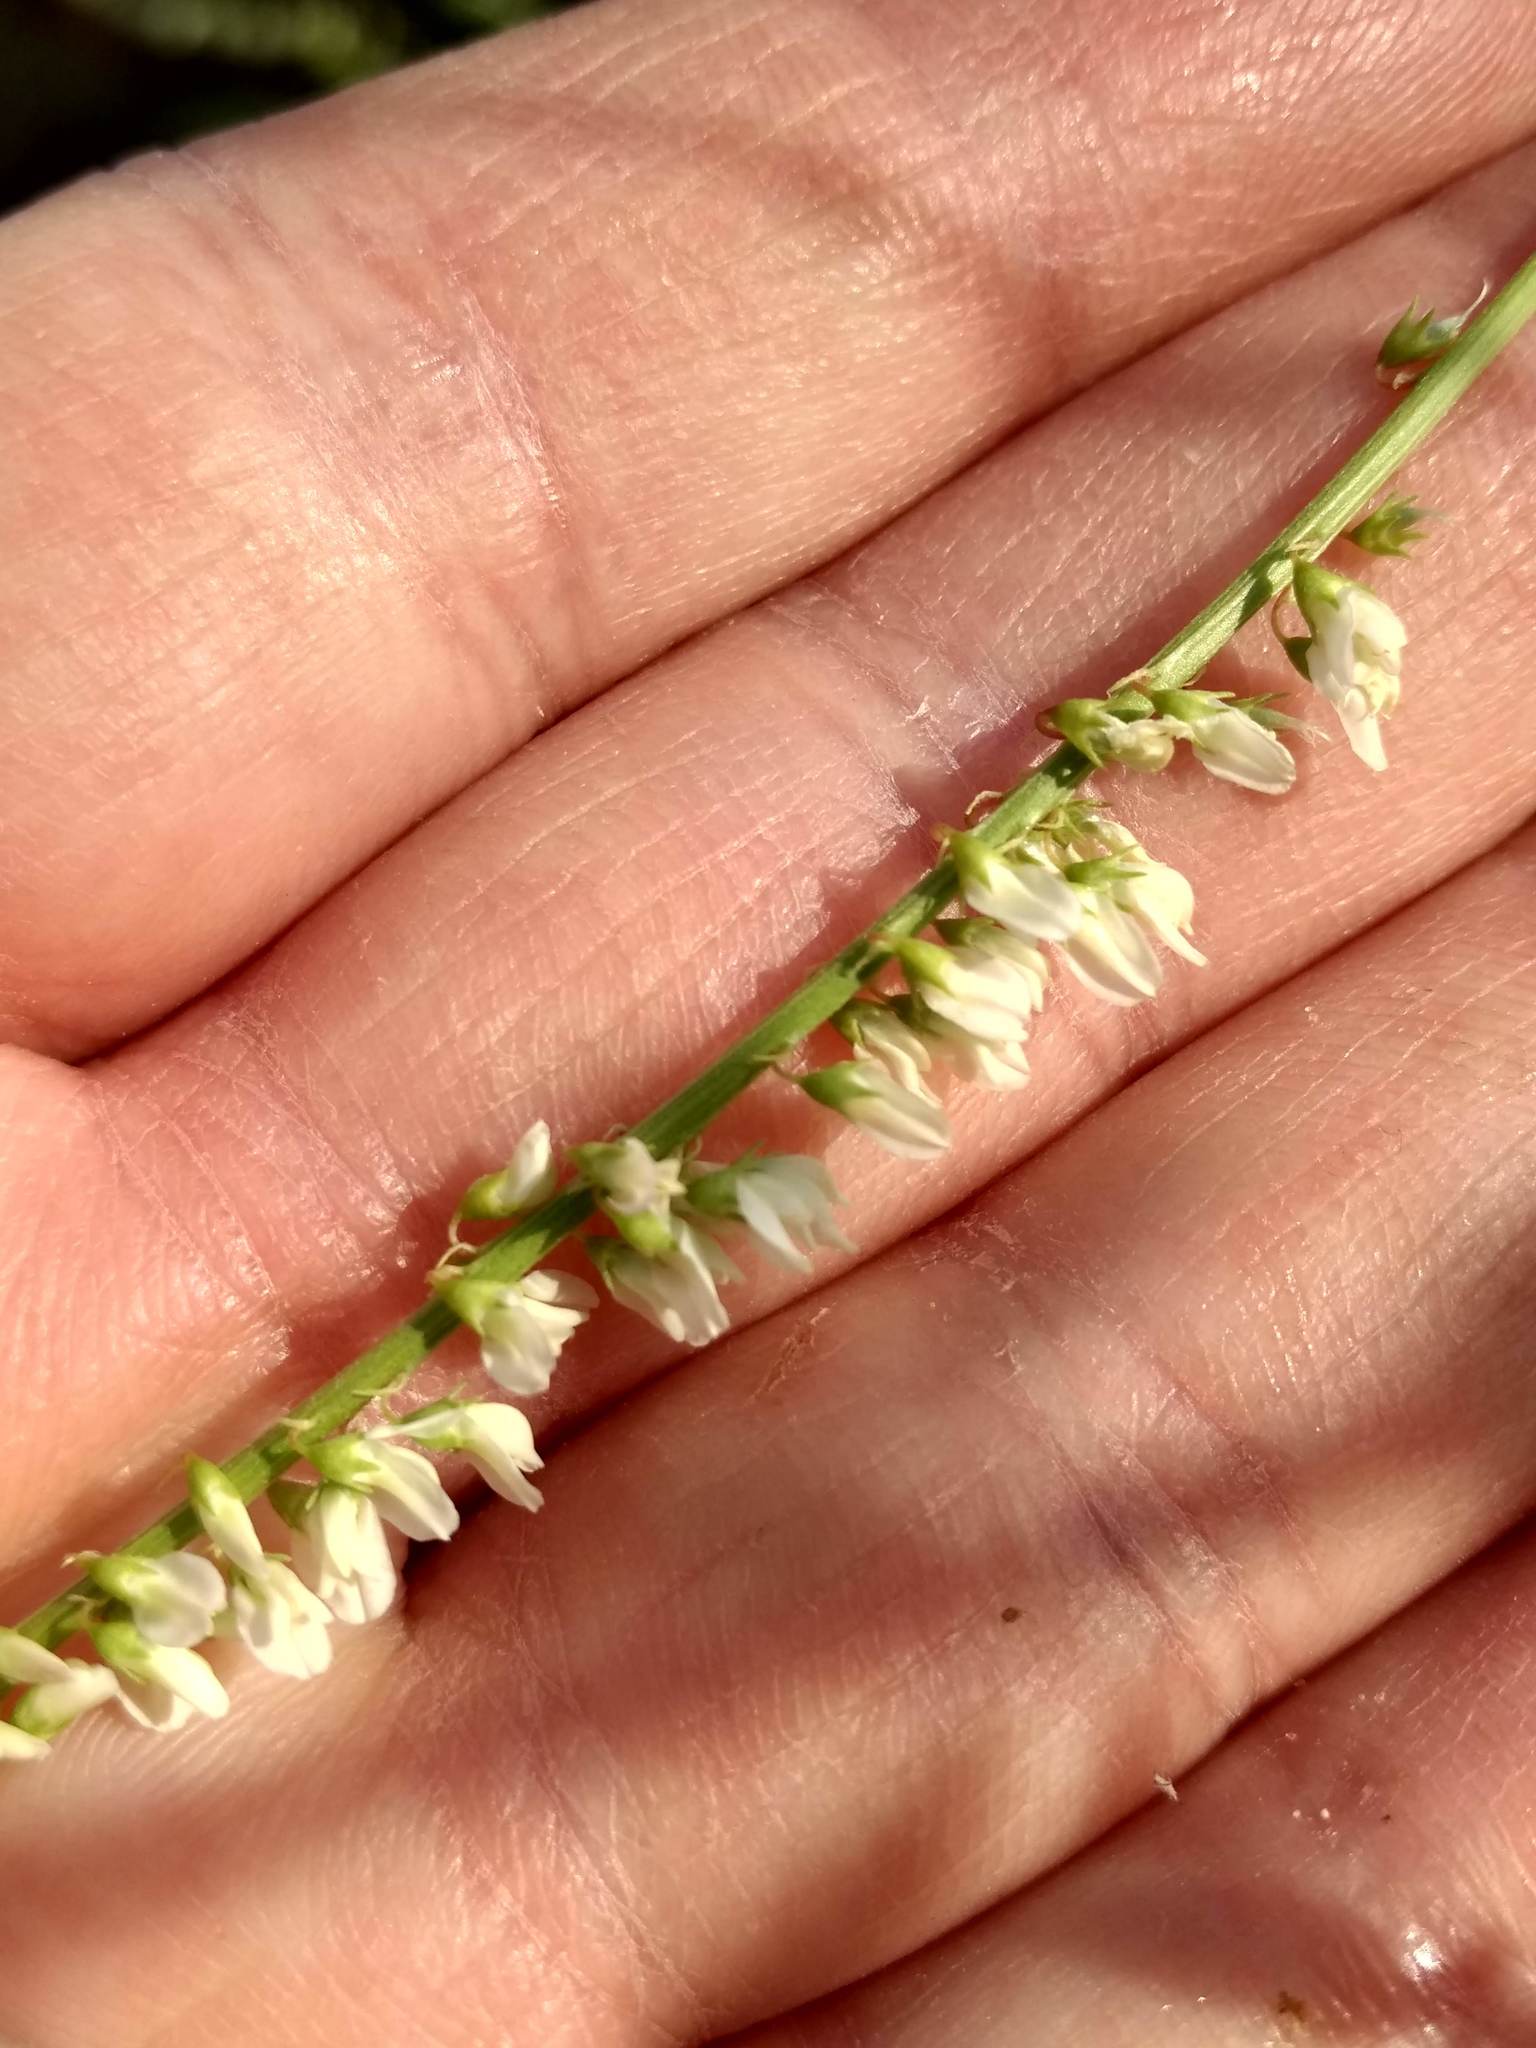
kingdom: Plantae
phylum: Tracheophyta
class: Magnoliopsida
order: Fabales
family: Fabaceae
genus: Melilotus
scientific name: Melilotus albus
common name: White melilot
